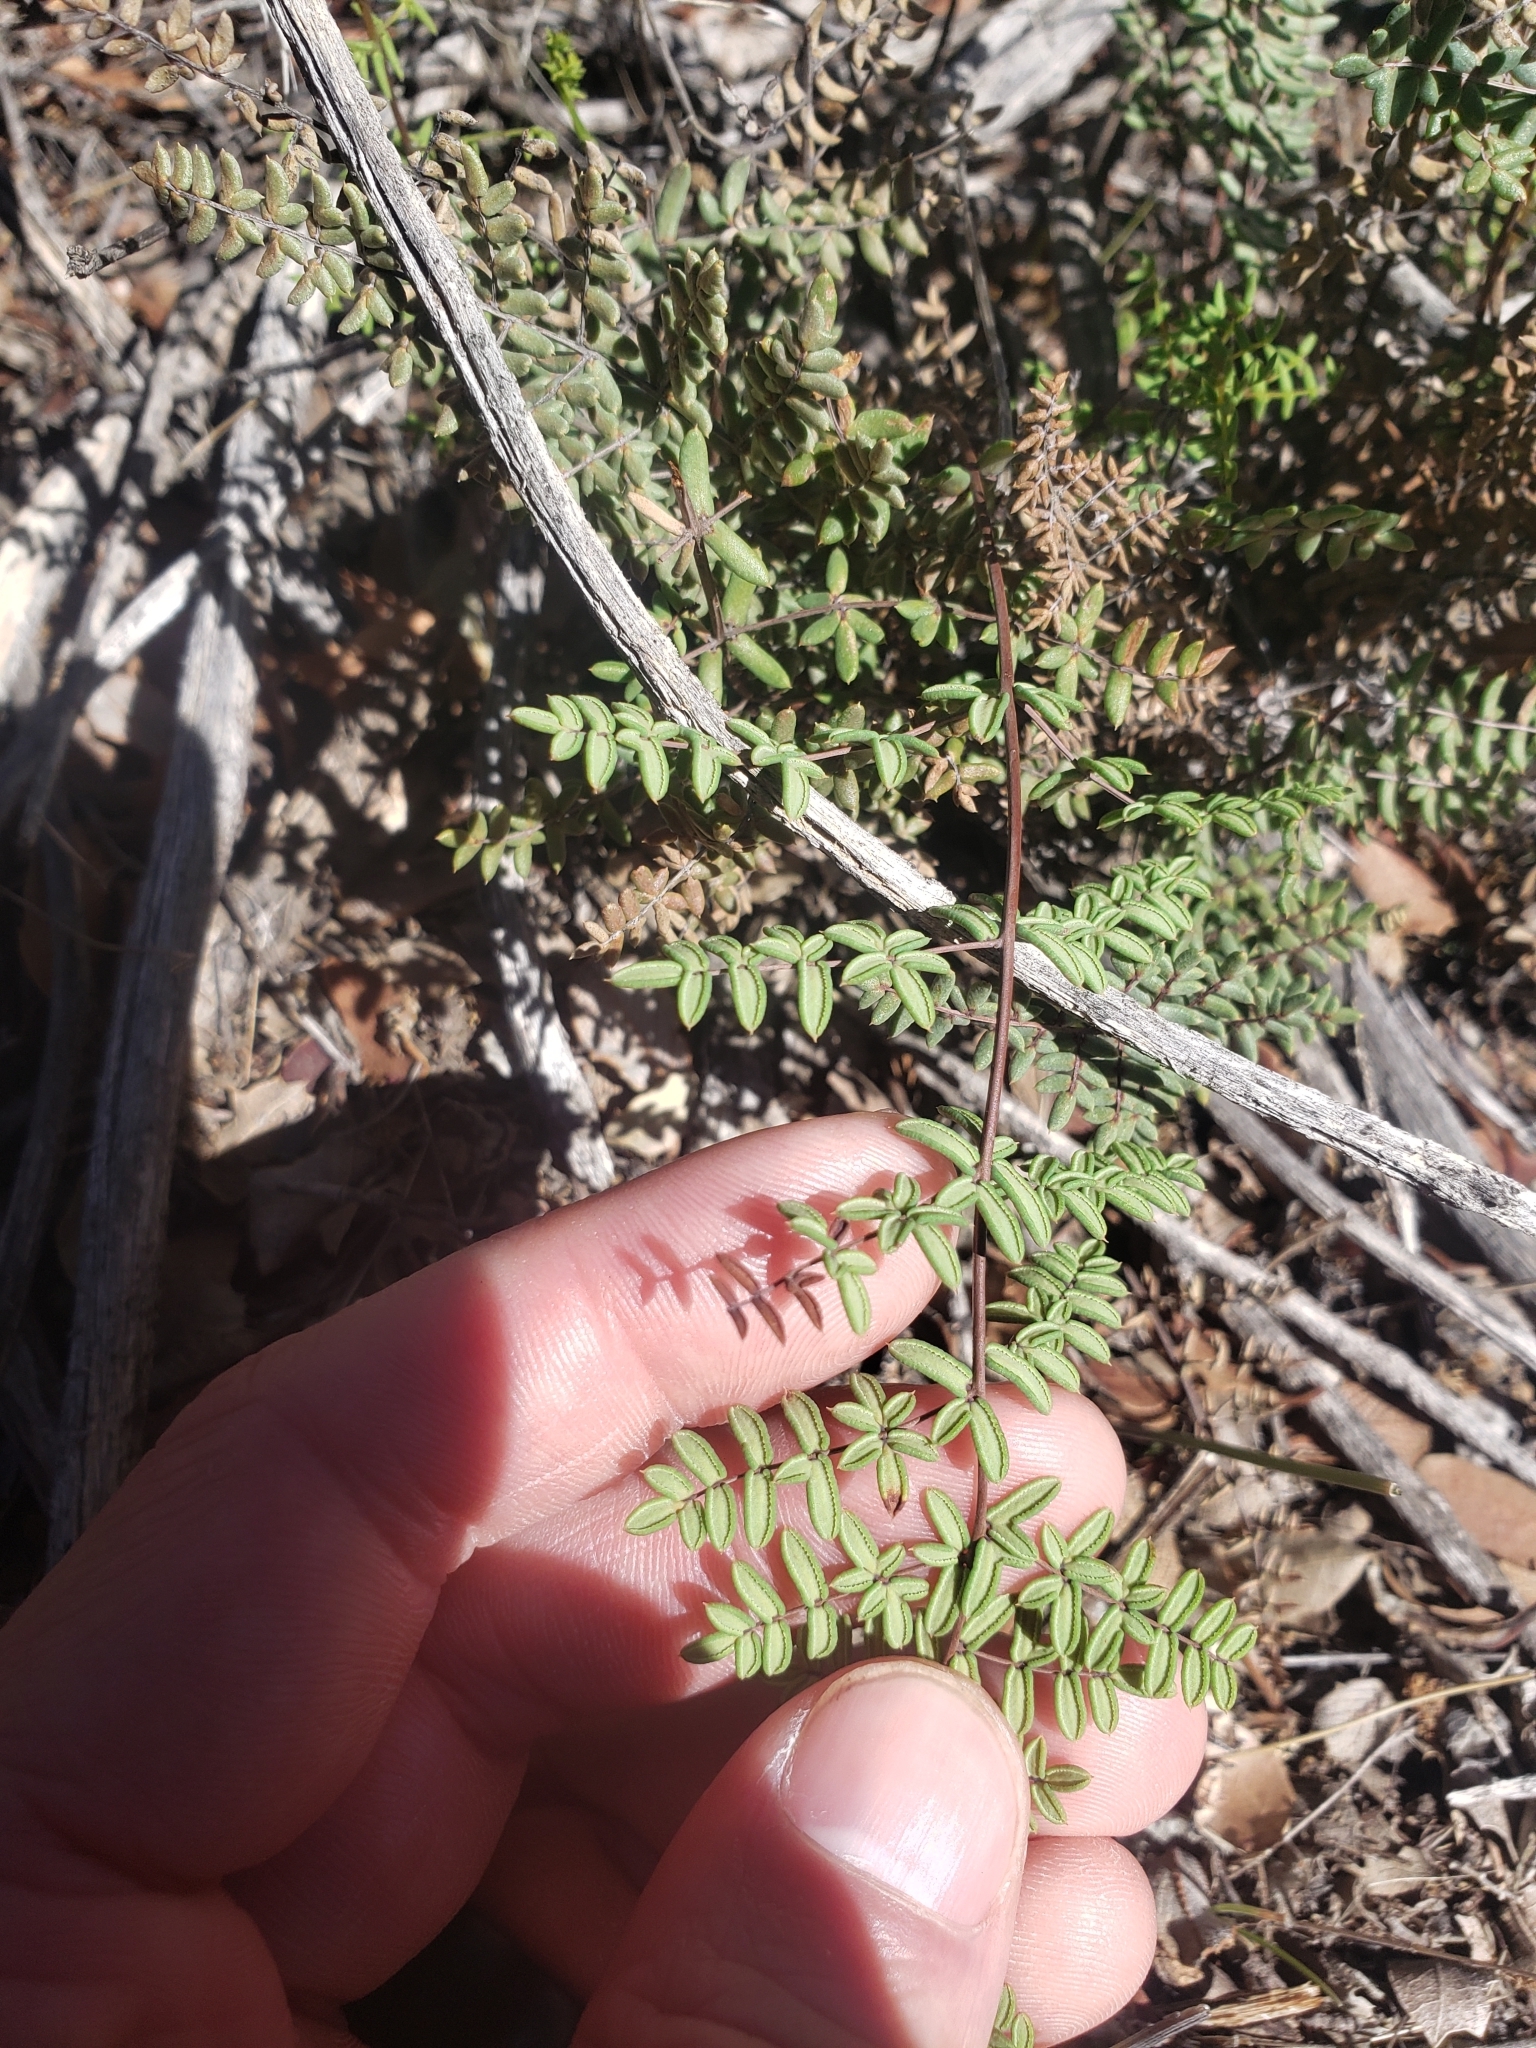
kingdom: Plantae
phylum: Tracheophyta
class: Polypodiopsida
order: Polypodiales
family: Pteridaceae
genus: Pellaea
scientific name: Pellaea mucronata
